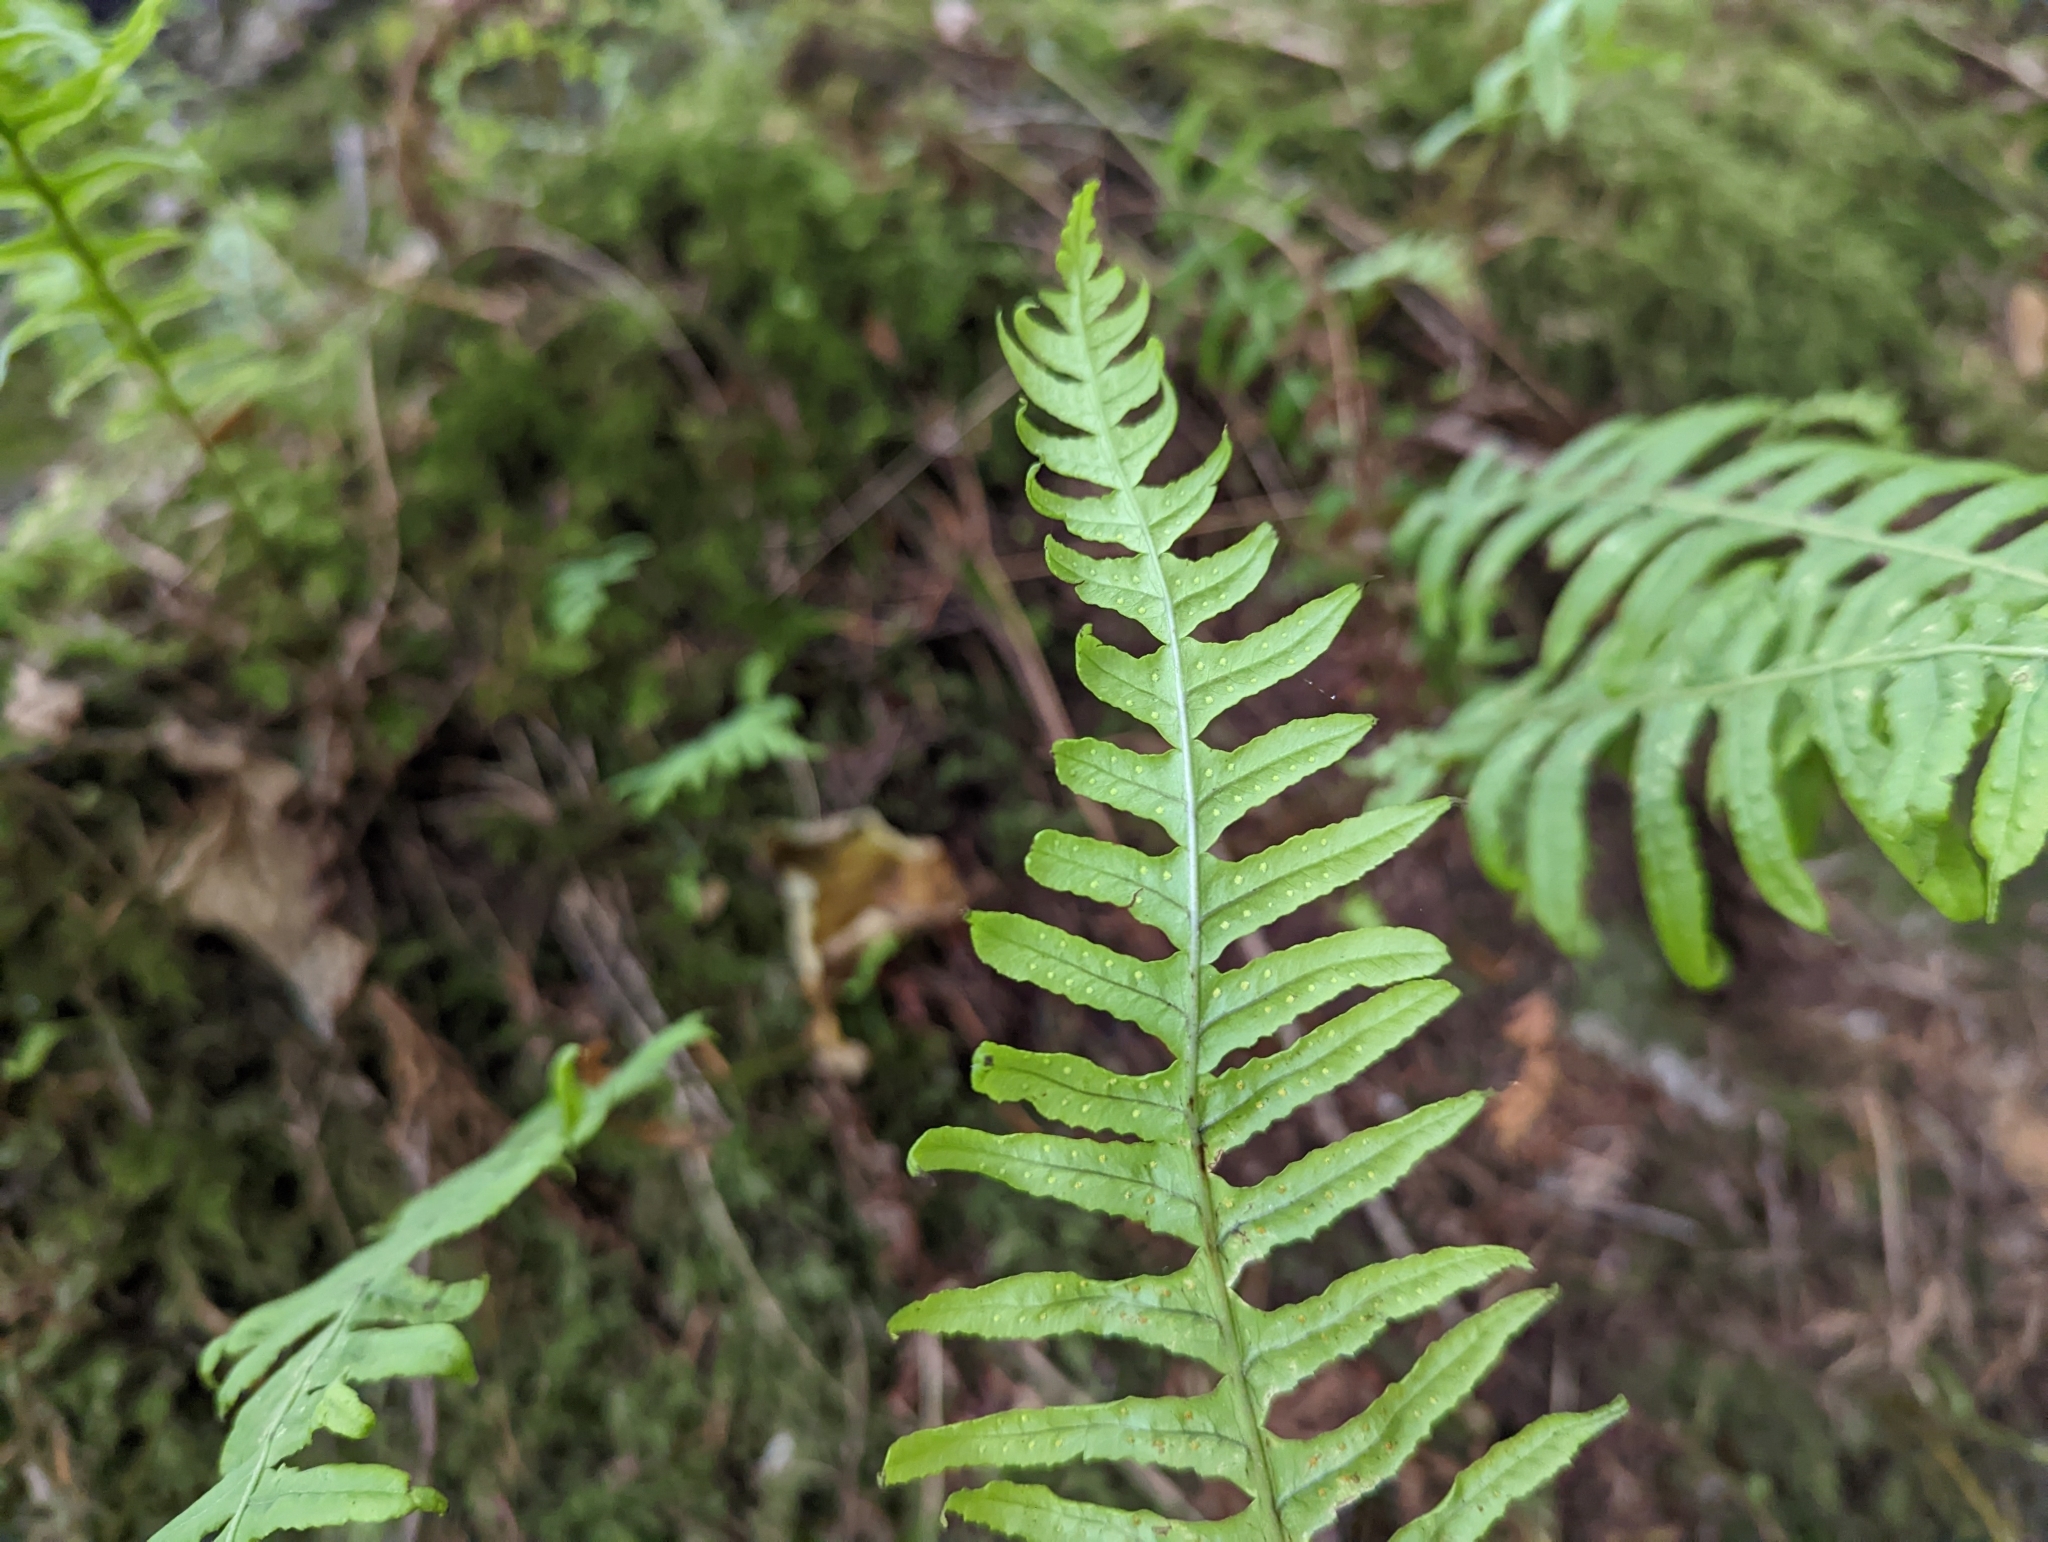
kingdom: Plantae
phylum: Tracheophyta
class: Polypodiopsida
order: Polypodiales
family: Polypodiaceae
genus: Polypodium
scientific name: Polypodium glycyrrhiza
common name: Licorice fern
